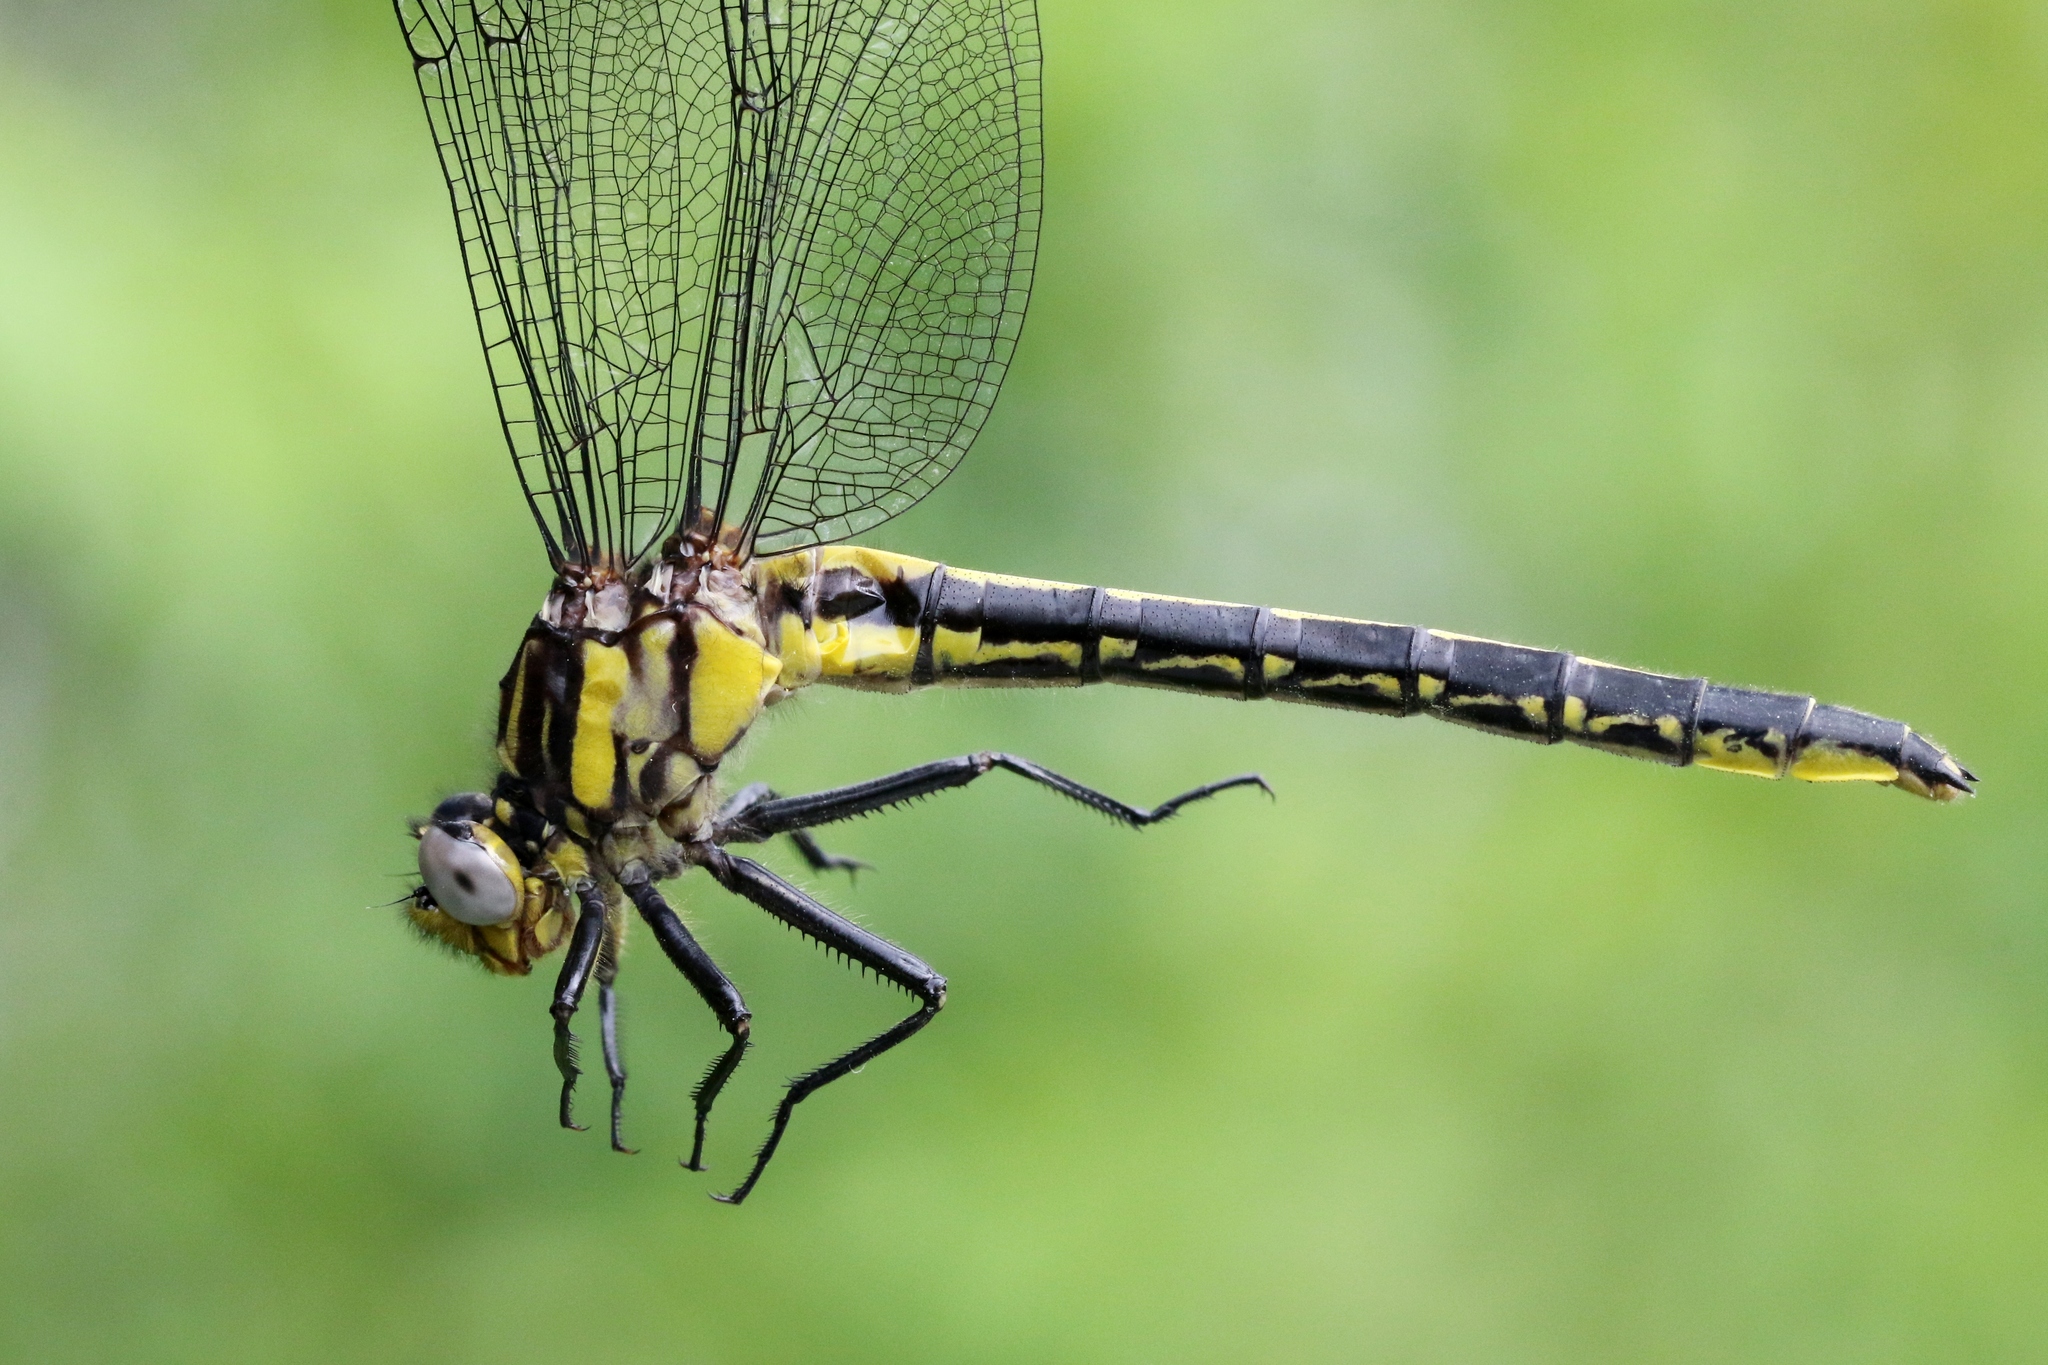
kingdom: Animalia
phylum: Arthropoda
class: Insecta
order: Odonata
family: Gomphidae
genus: Phanogomphus
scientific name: Phanogomphus descriptus
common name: Harpoon clubtail
